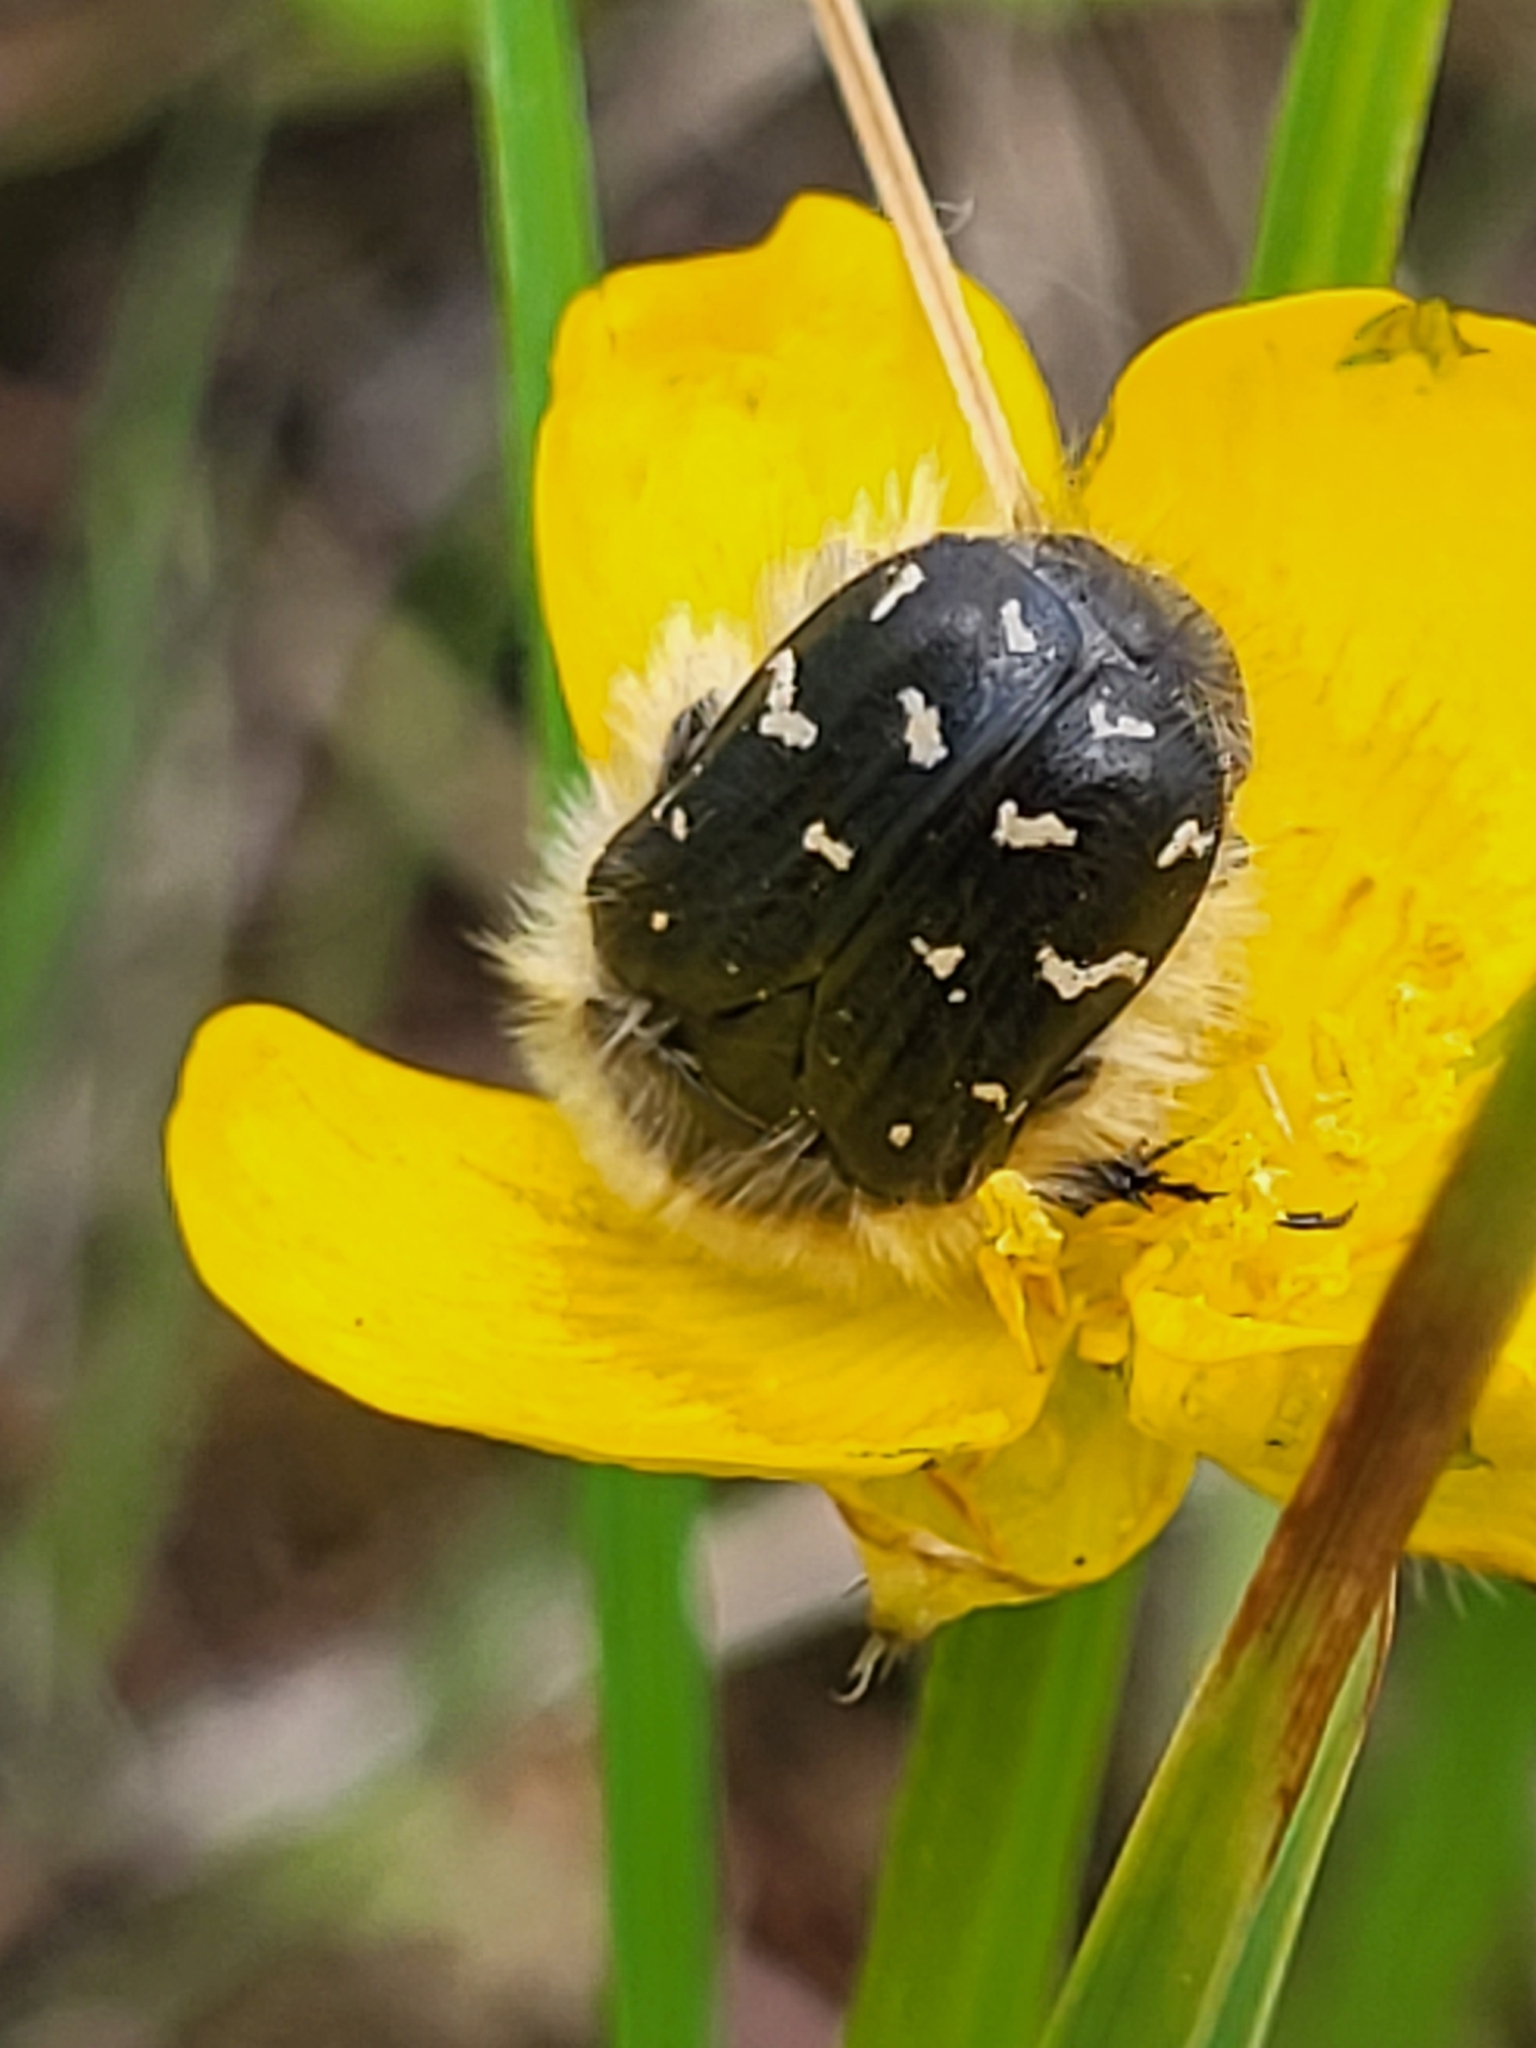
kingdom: Animalia
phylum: Arthropoda
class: Insecta
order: Coleoptera
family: Scarabaeidae
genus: Tropinota
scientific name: Tropinota hirta
